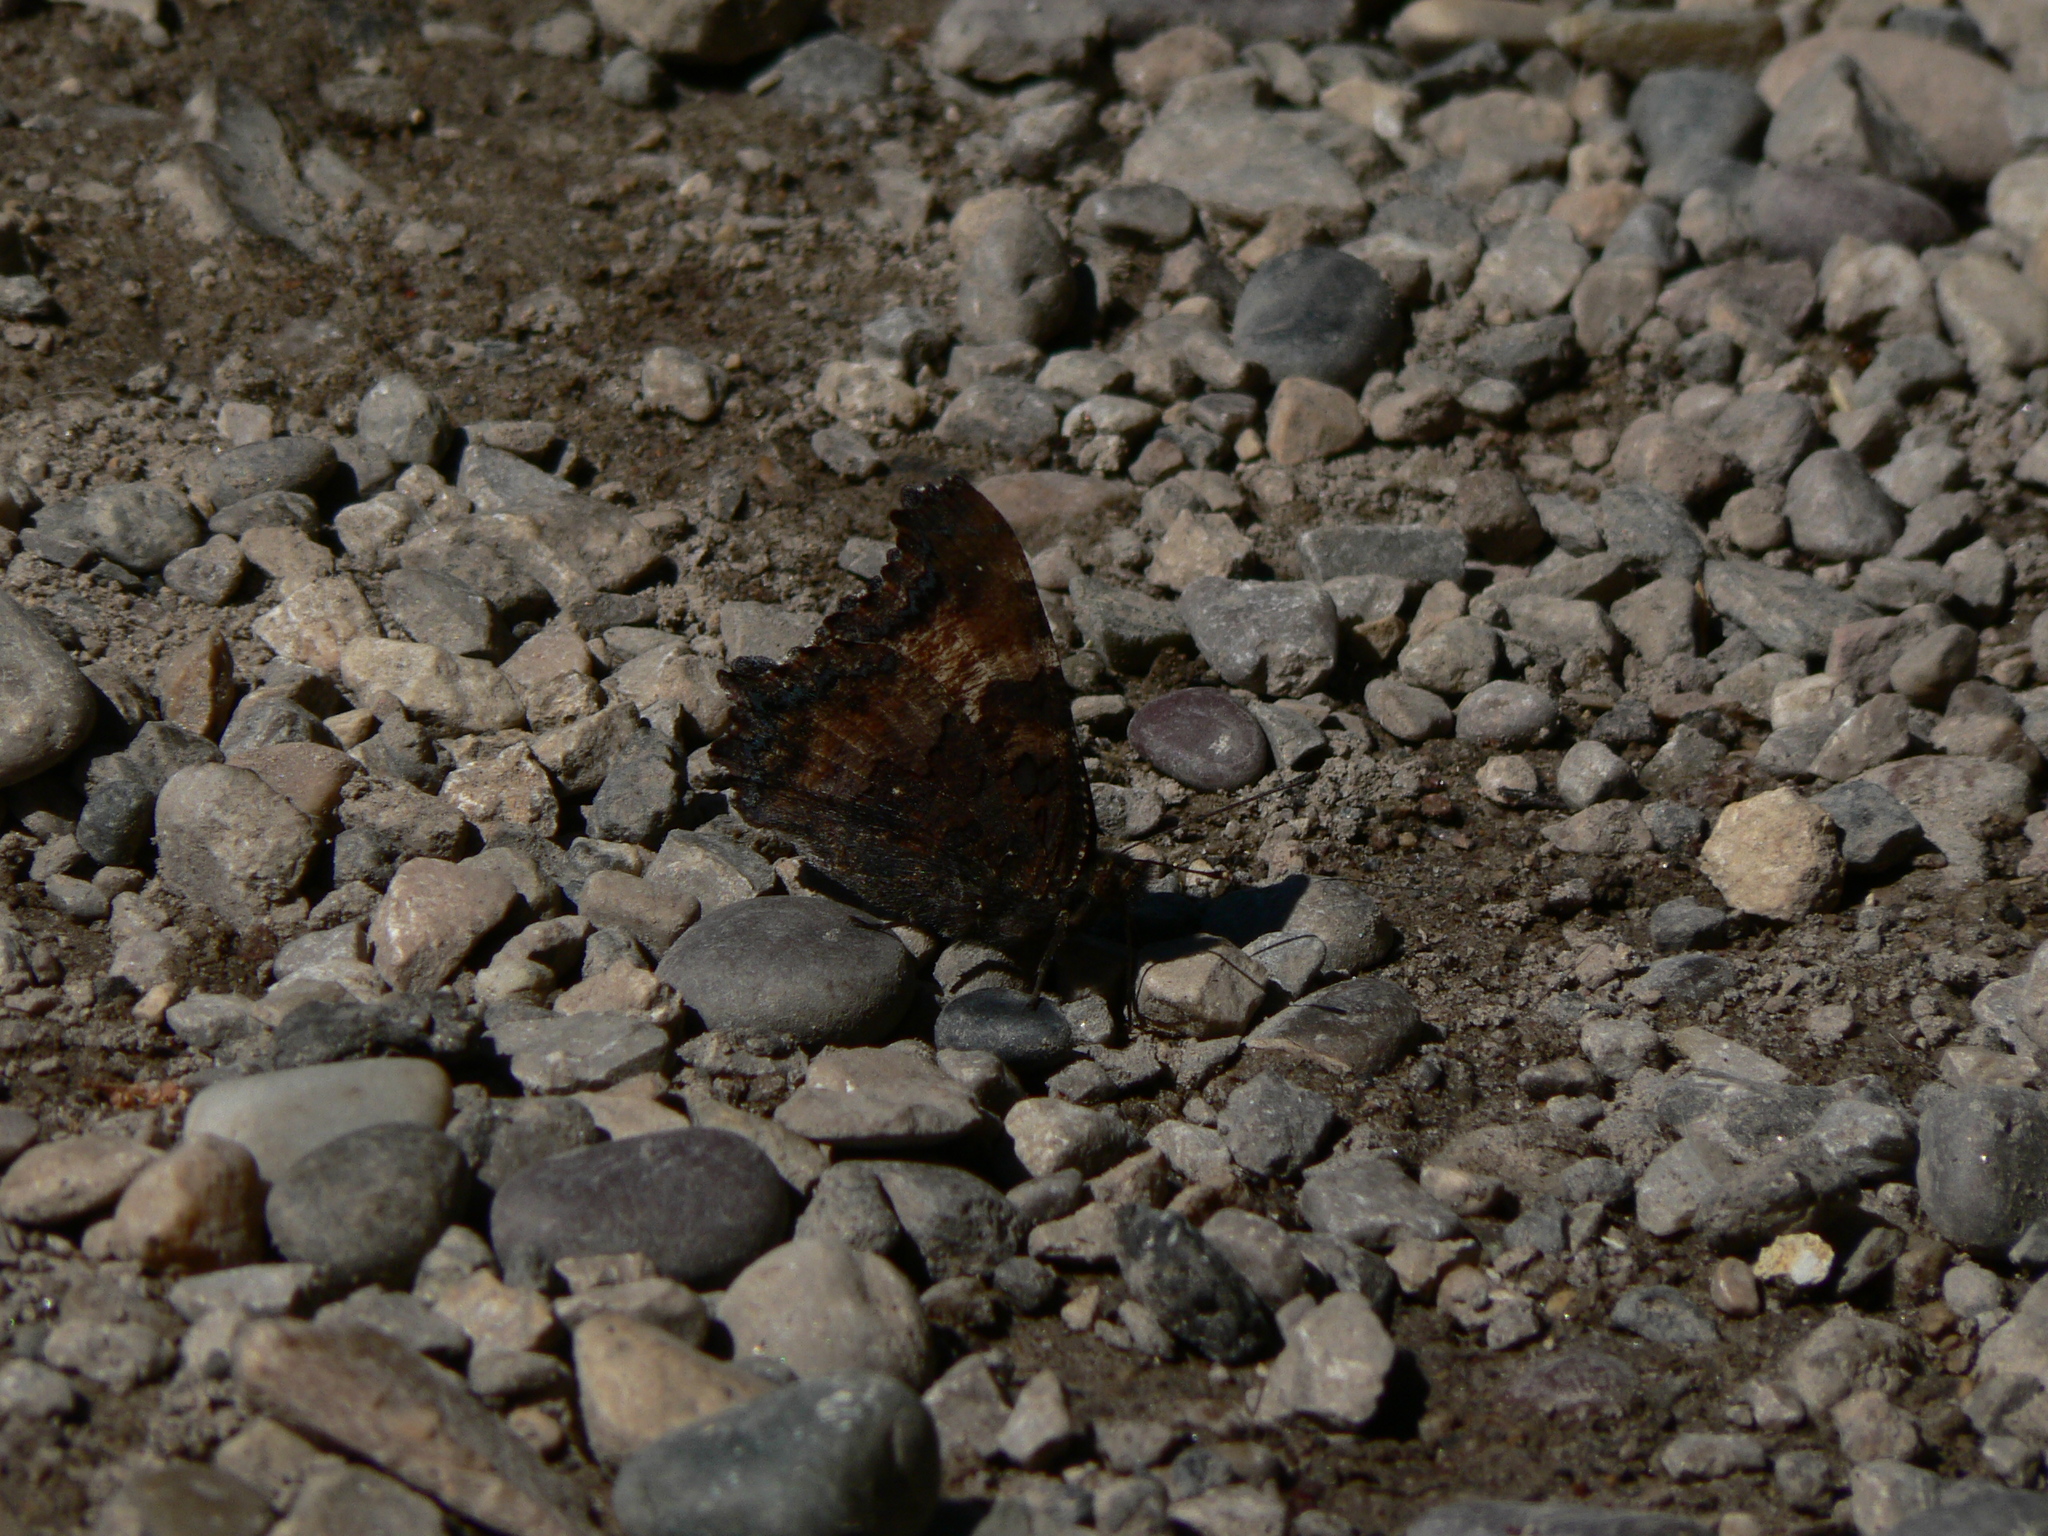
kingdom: Animalia
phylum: Arthropoda
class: Insecta
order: Lepidoptera
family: Nymphalidae
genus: Nymphalis
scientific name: Nymphalis californica
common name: California tortoiseshell
